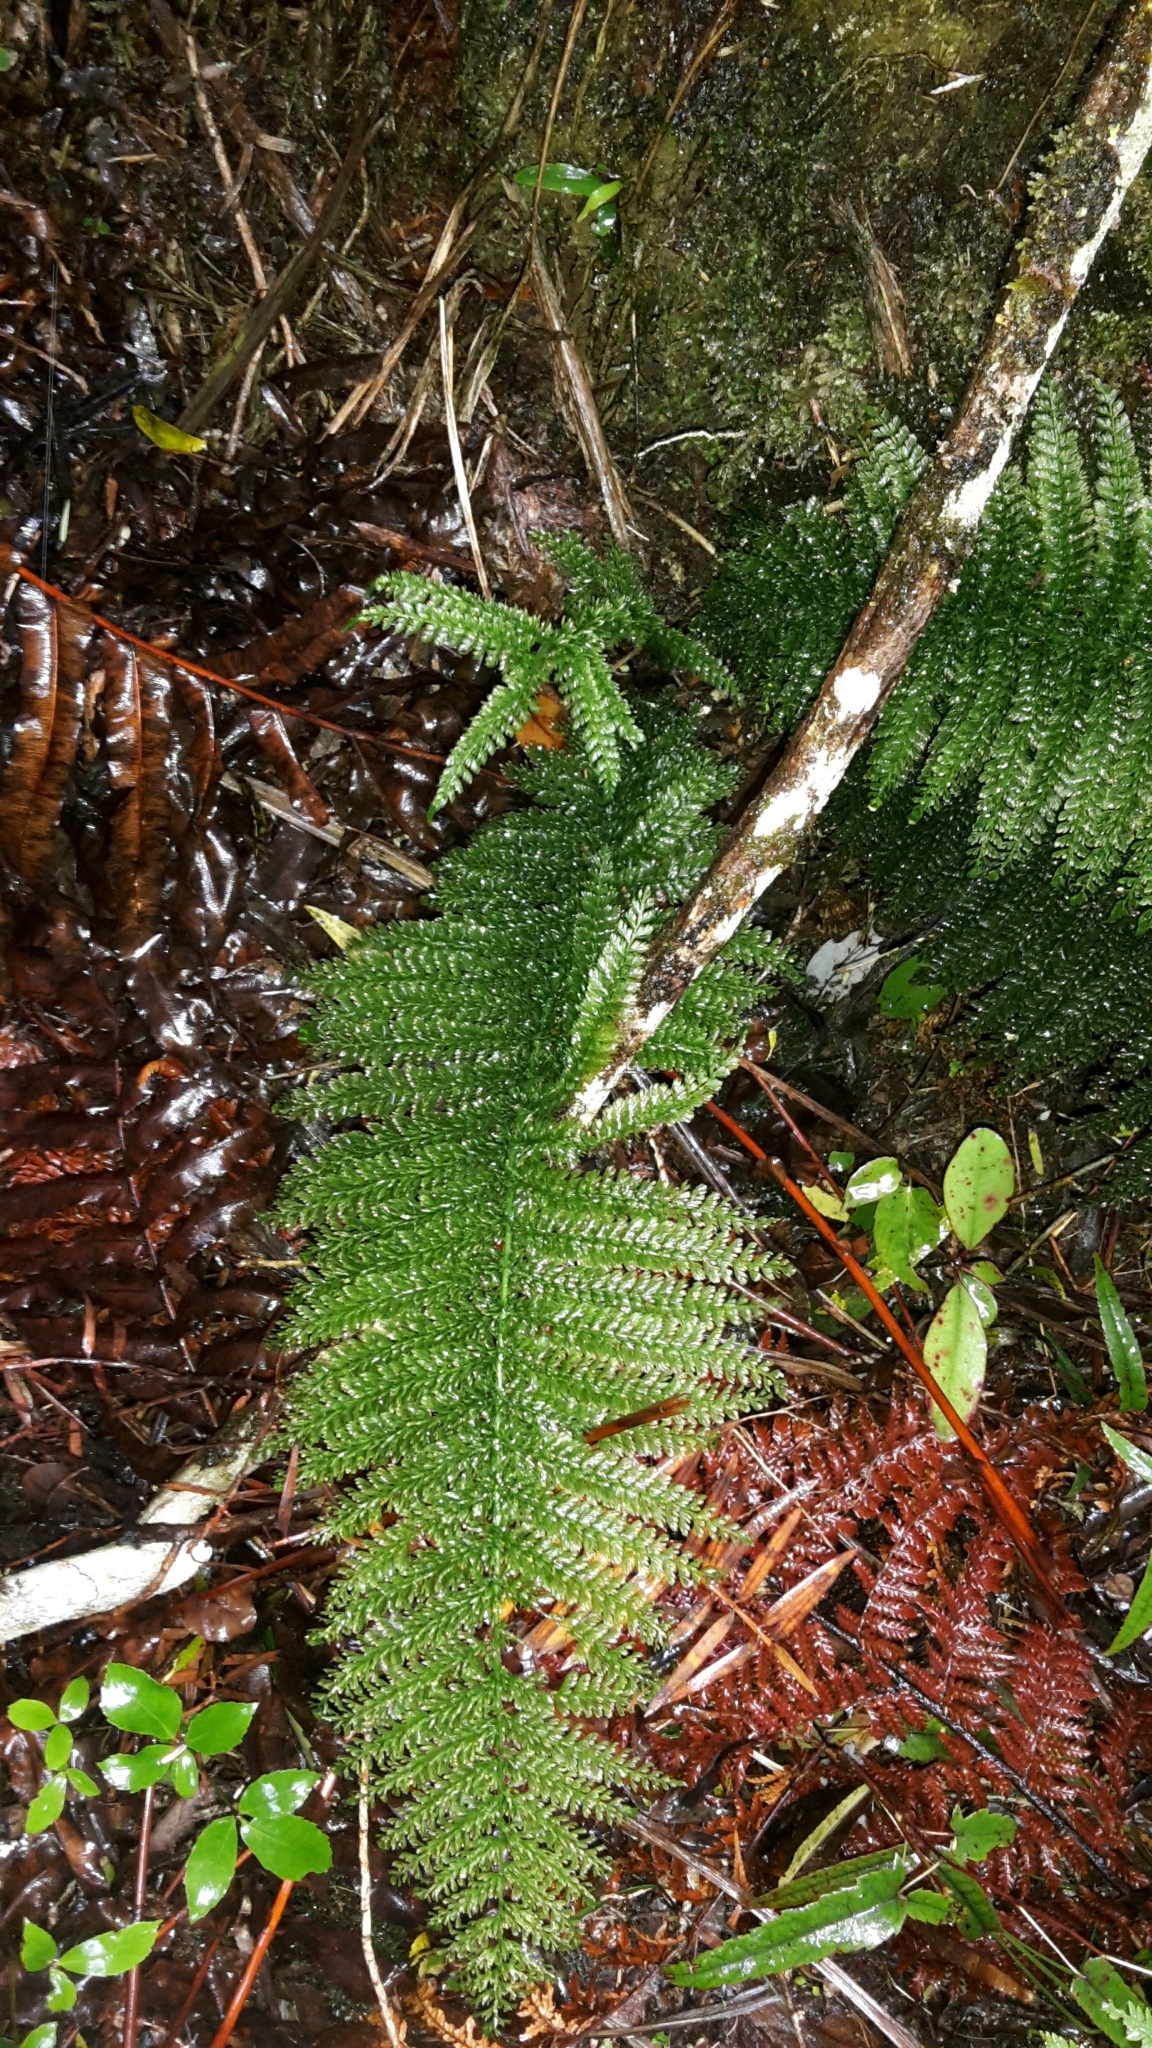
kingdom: Plantae
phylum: Tracheophyta
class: Polypodiopsida
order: Osmundales
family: Osmundaceae
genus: Leptopteris
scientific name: Leptopteris superba
